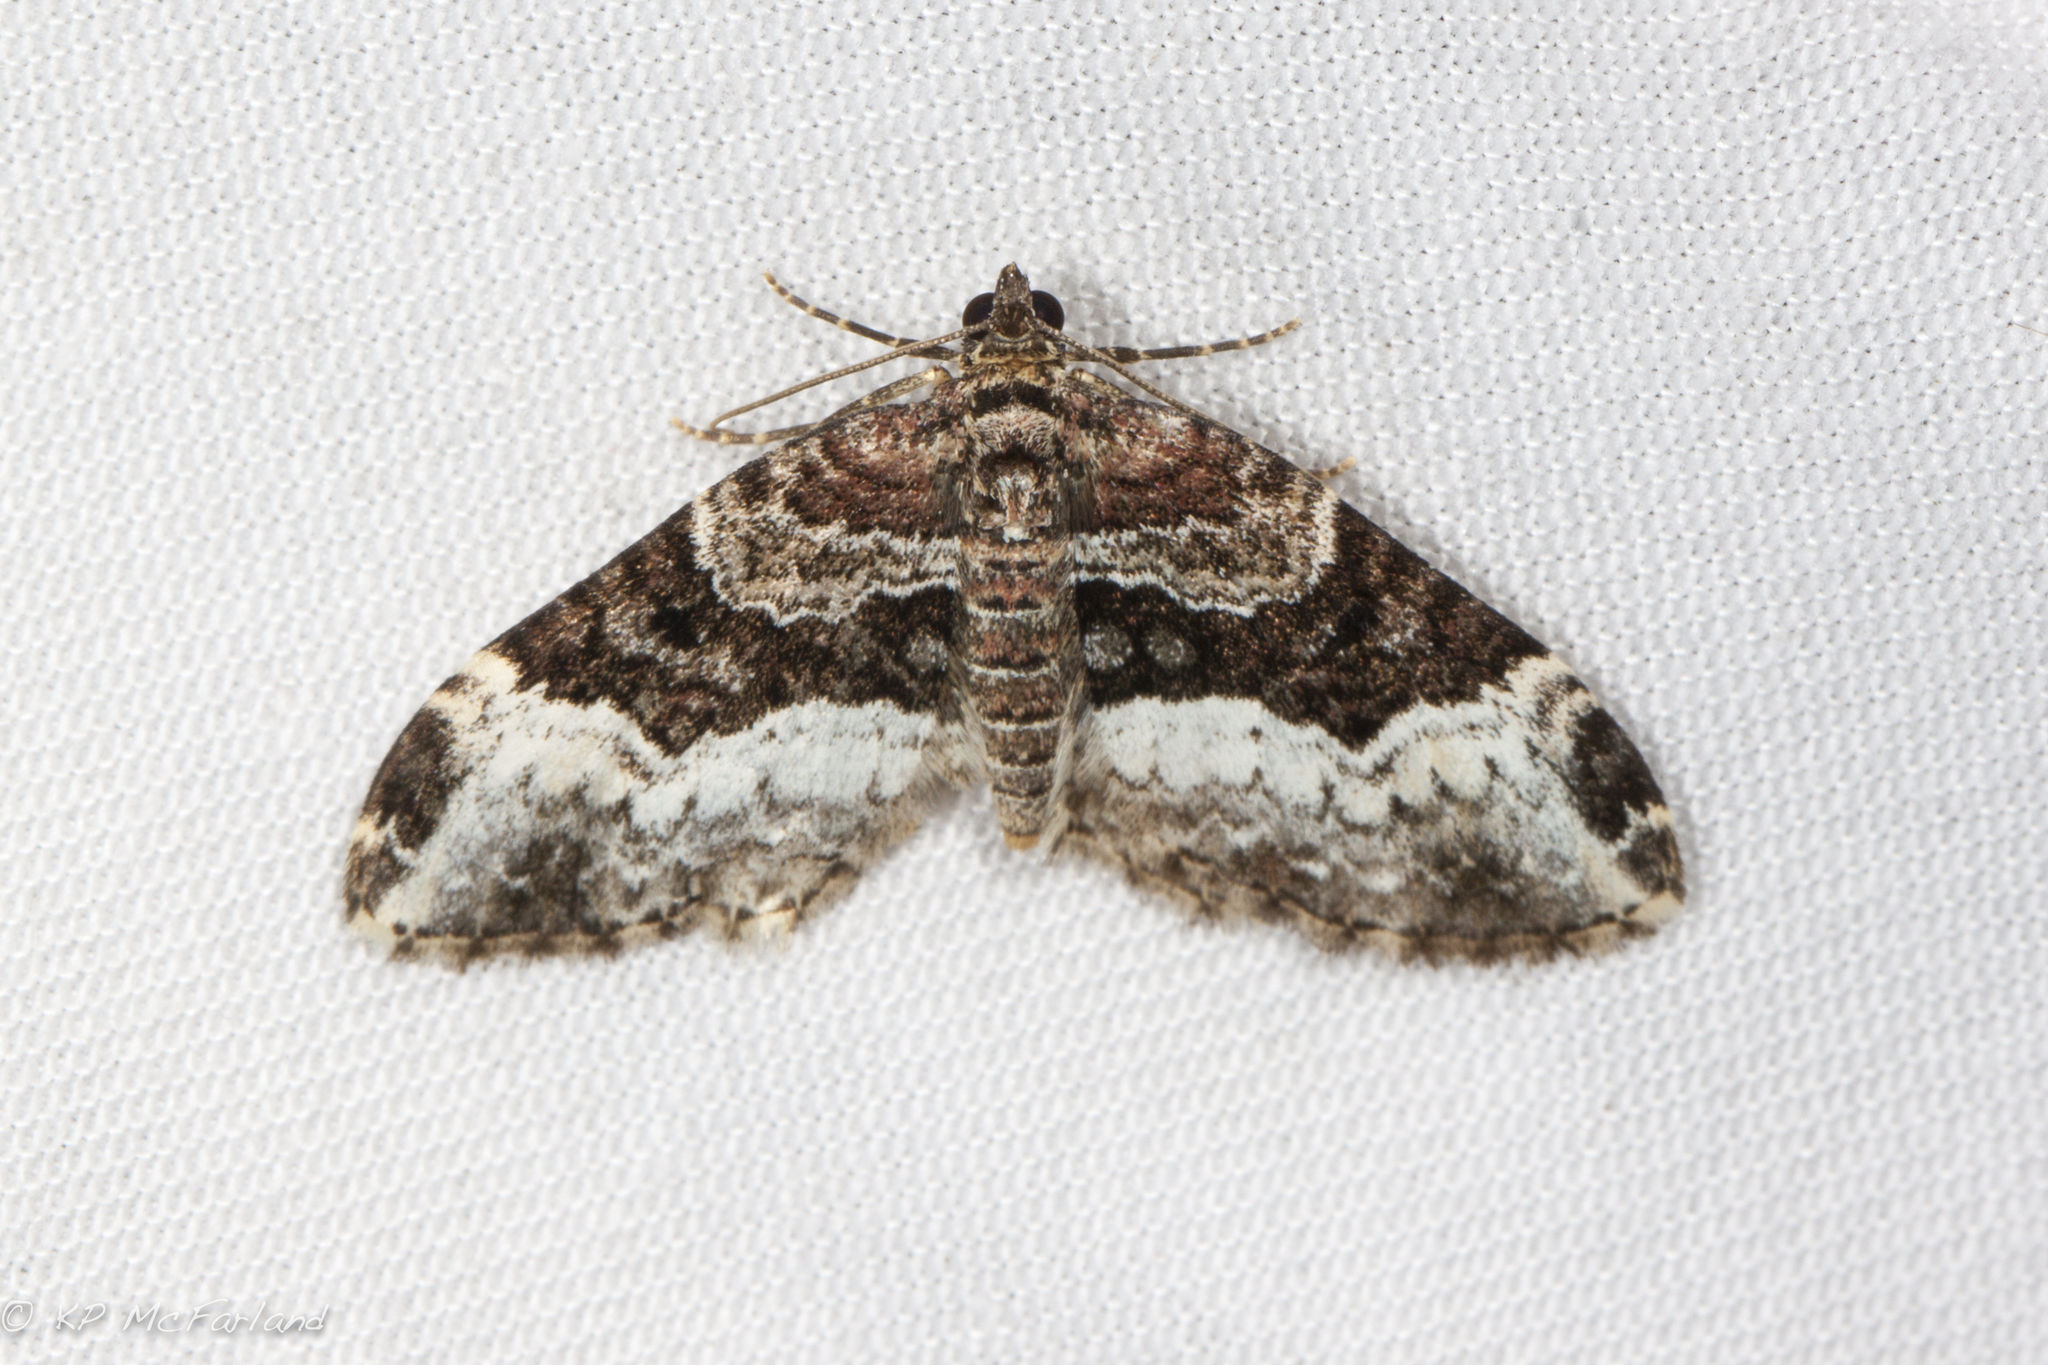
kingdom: Animalia
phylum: Arthropoda
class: Insecta
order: Lepidoptera
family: Geometridae
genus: Euphyia
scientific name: Euphyia intermediata
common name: Sharp-angled carpet
